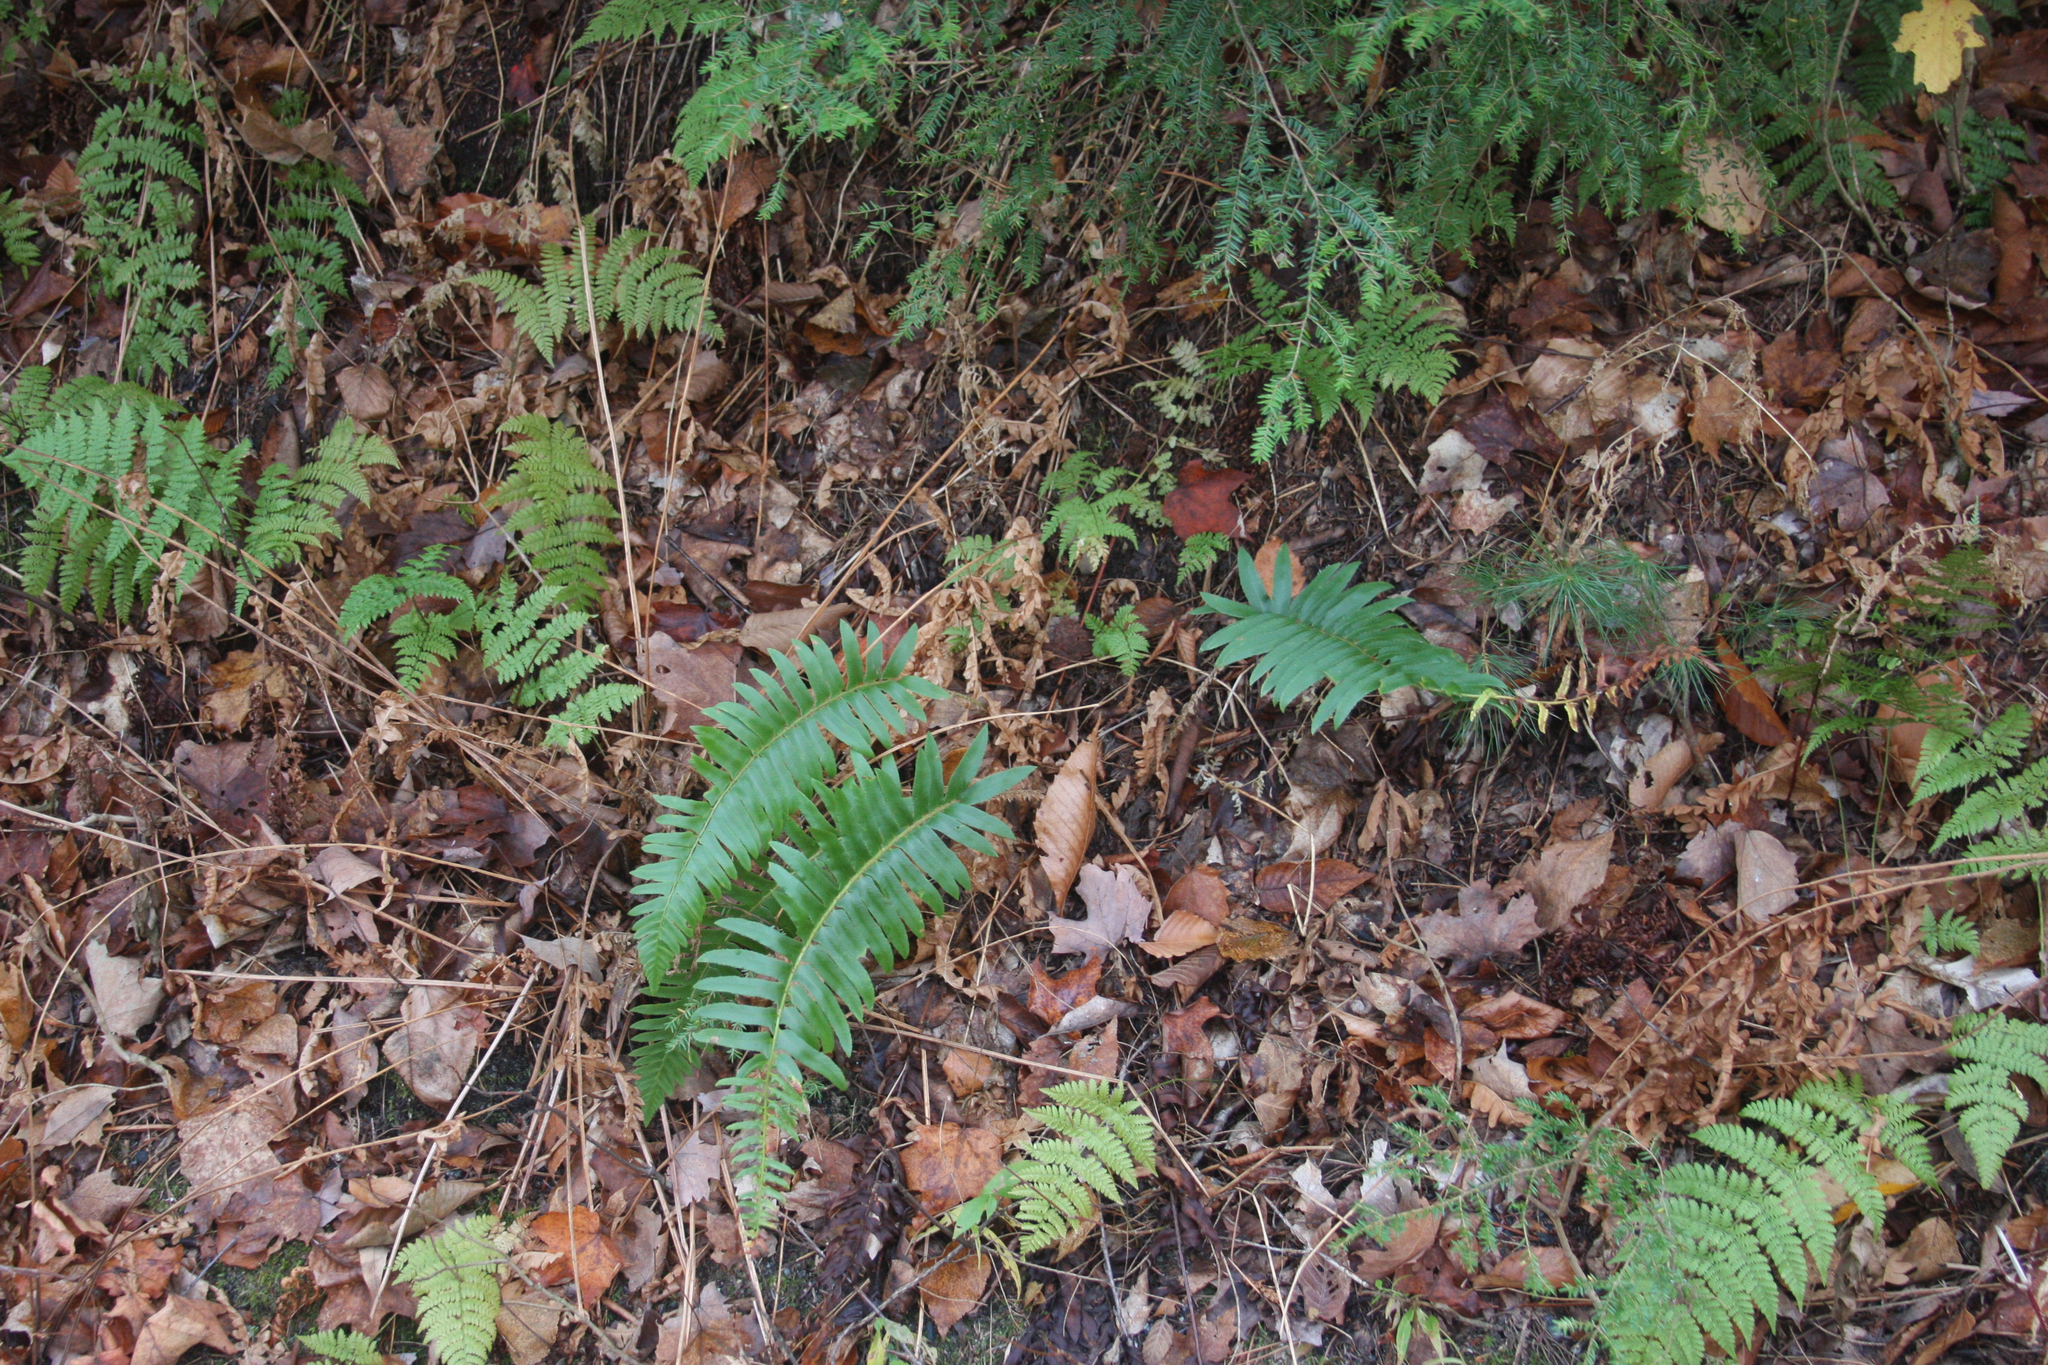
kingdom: Plantae
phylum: Tracheophyta
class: Pinopsida
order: Pinales
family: Pinaceae
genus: Tsuga
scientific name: Tsuga canadensis
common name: Eastern hemlock
